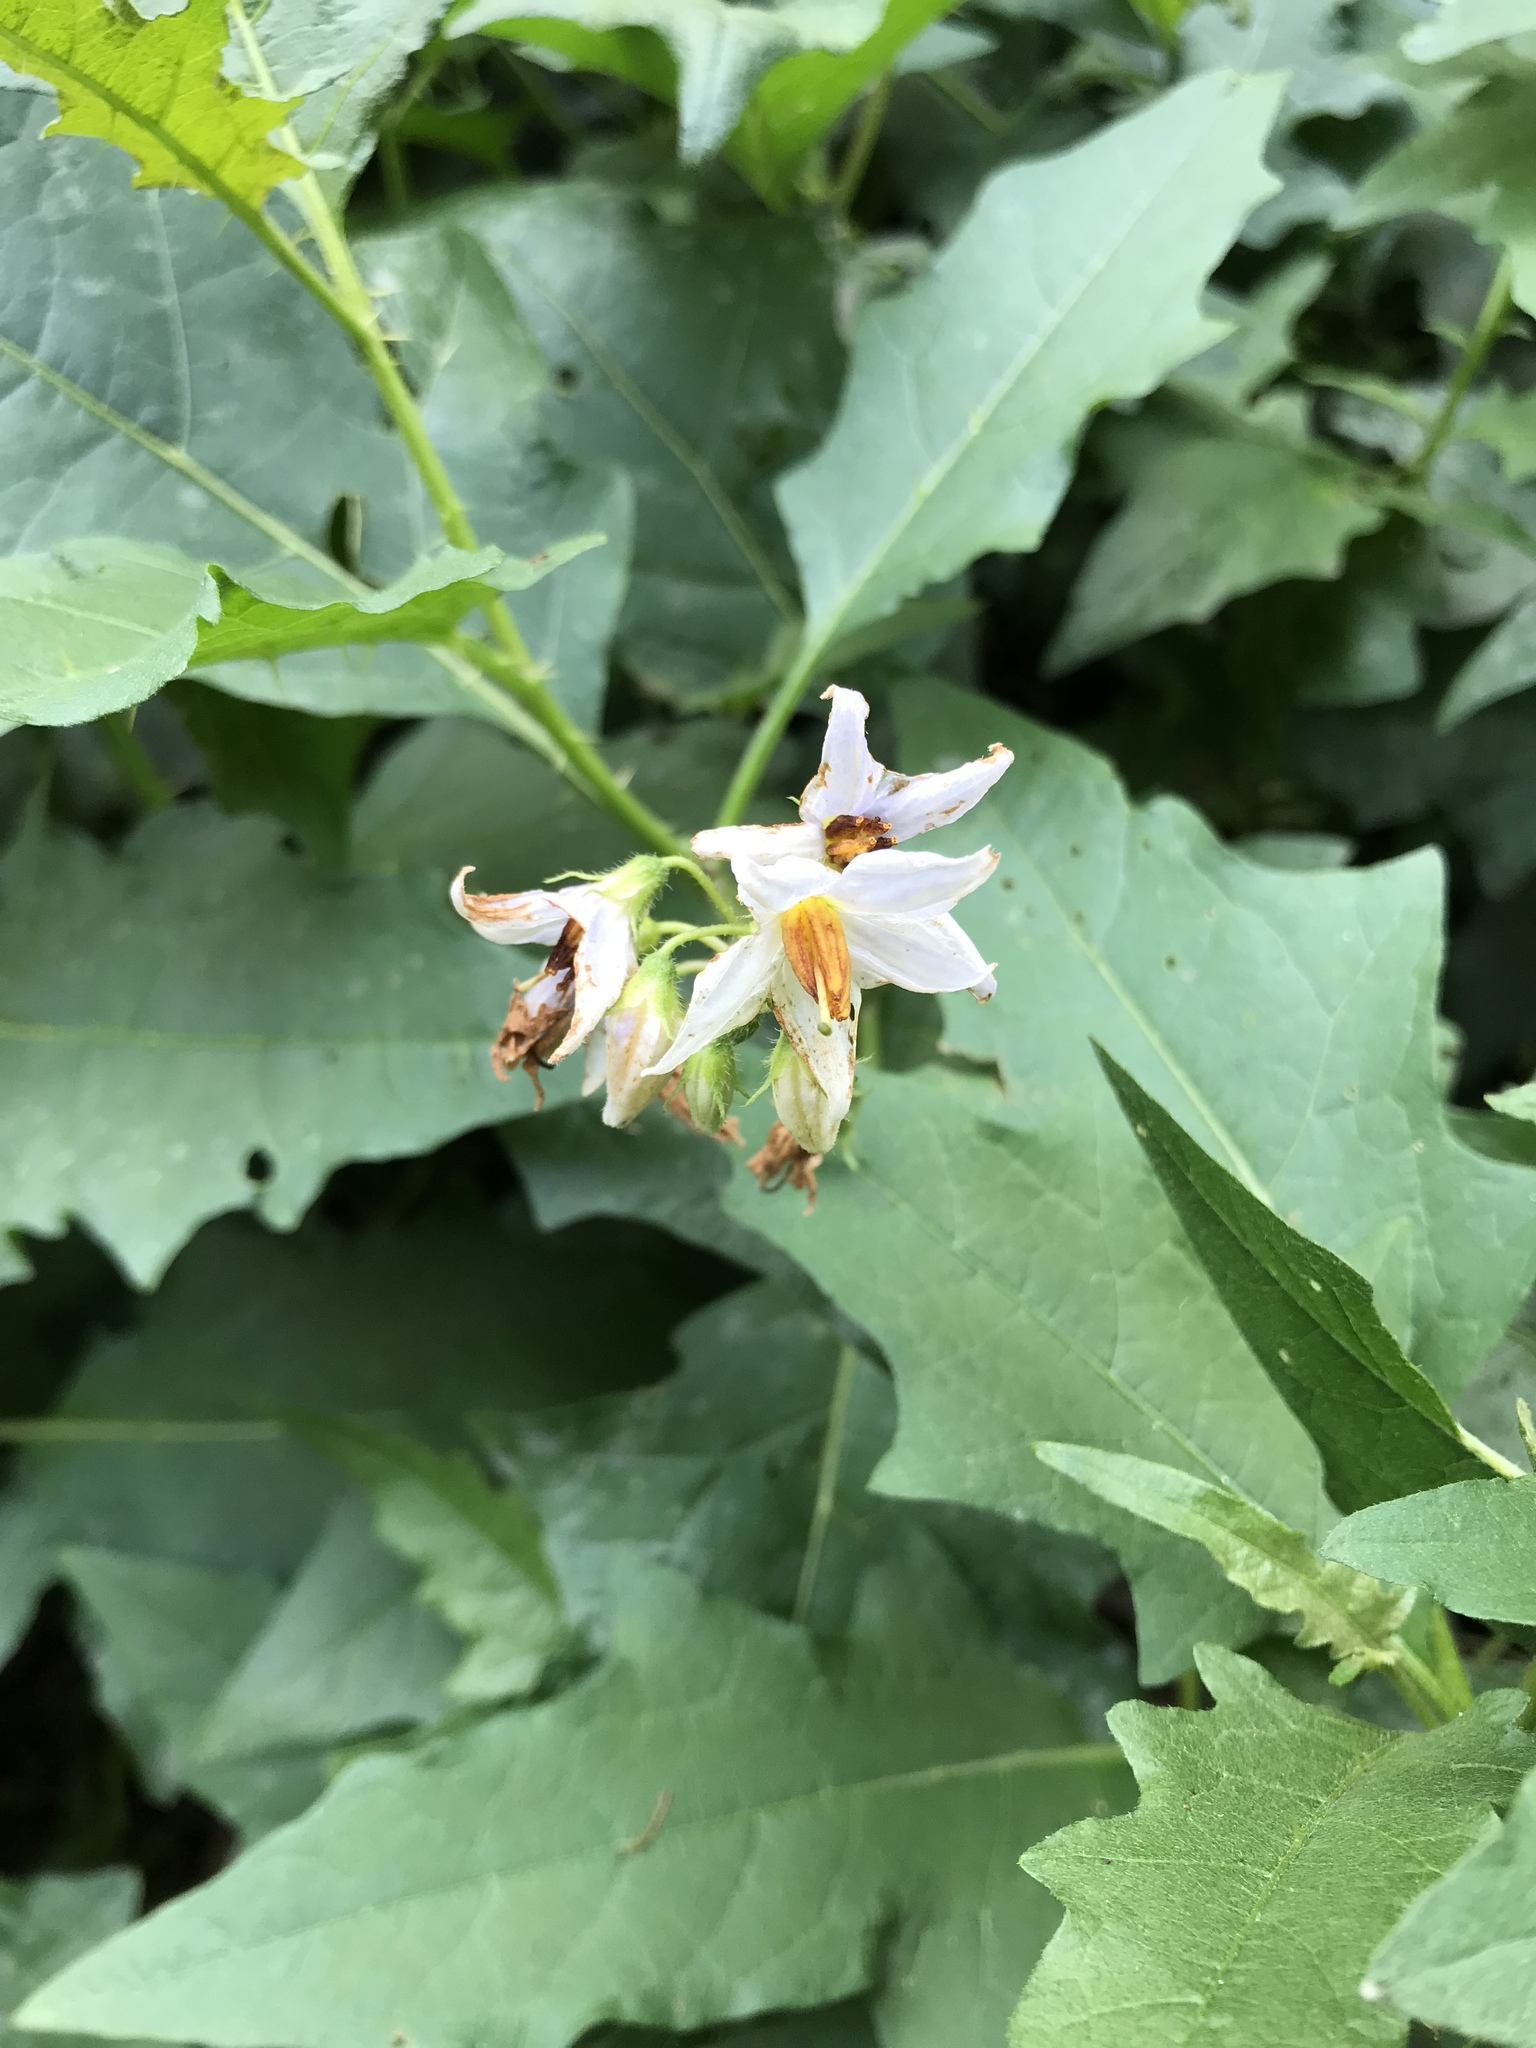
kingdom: Plantae
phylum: Tracheophyta
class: Magnoliopsida
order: Solanales
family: Solanaceae
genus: Solanum
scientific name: Solanum carolinense
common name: Horse-nettle
